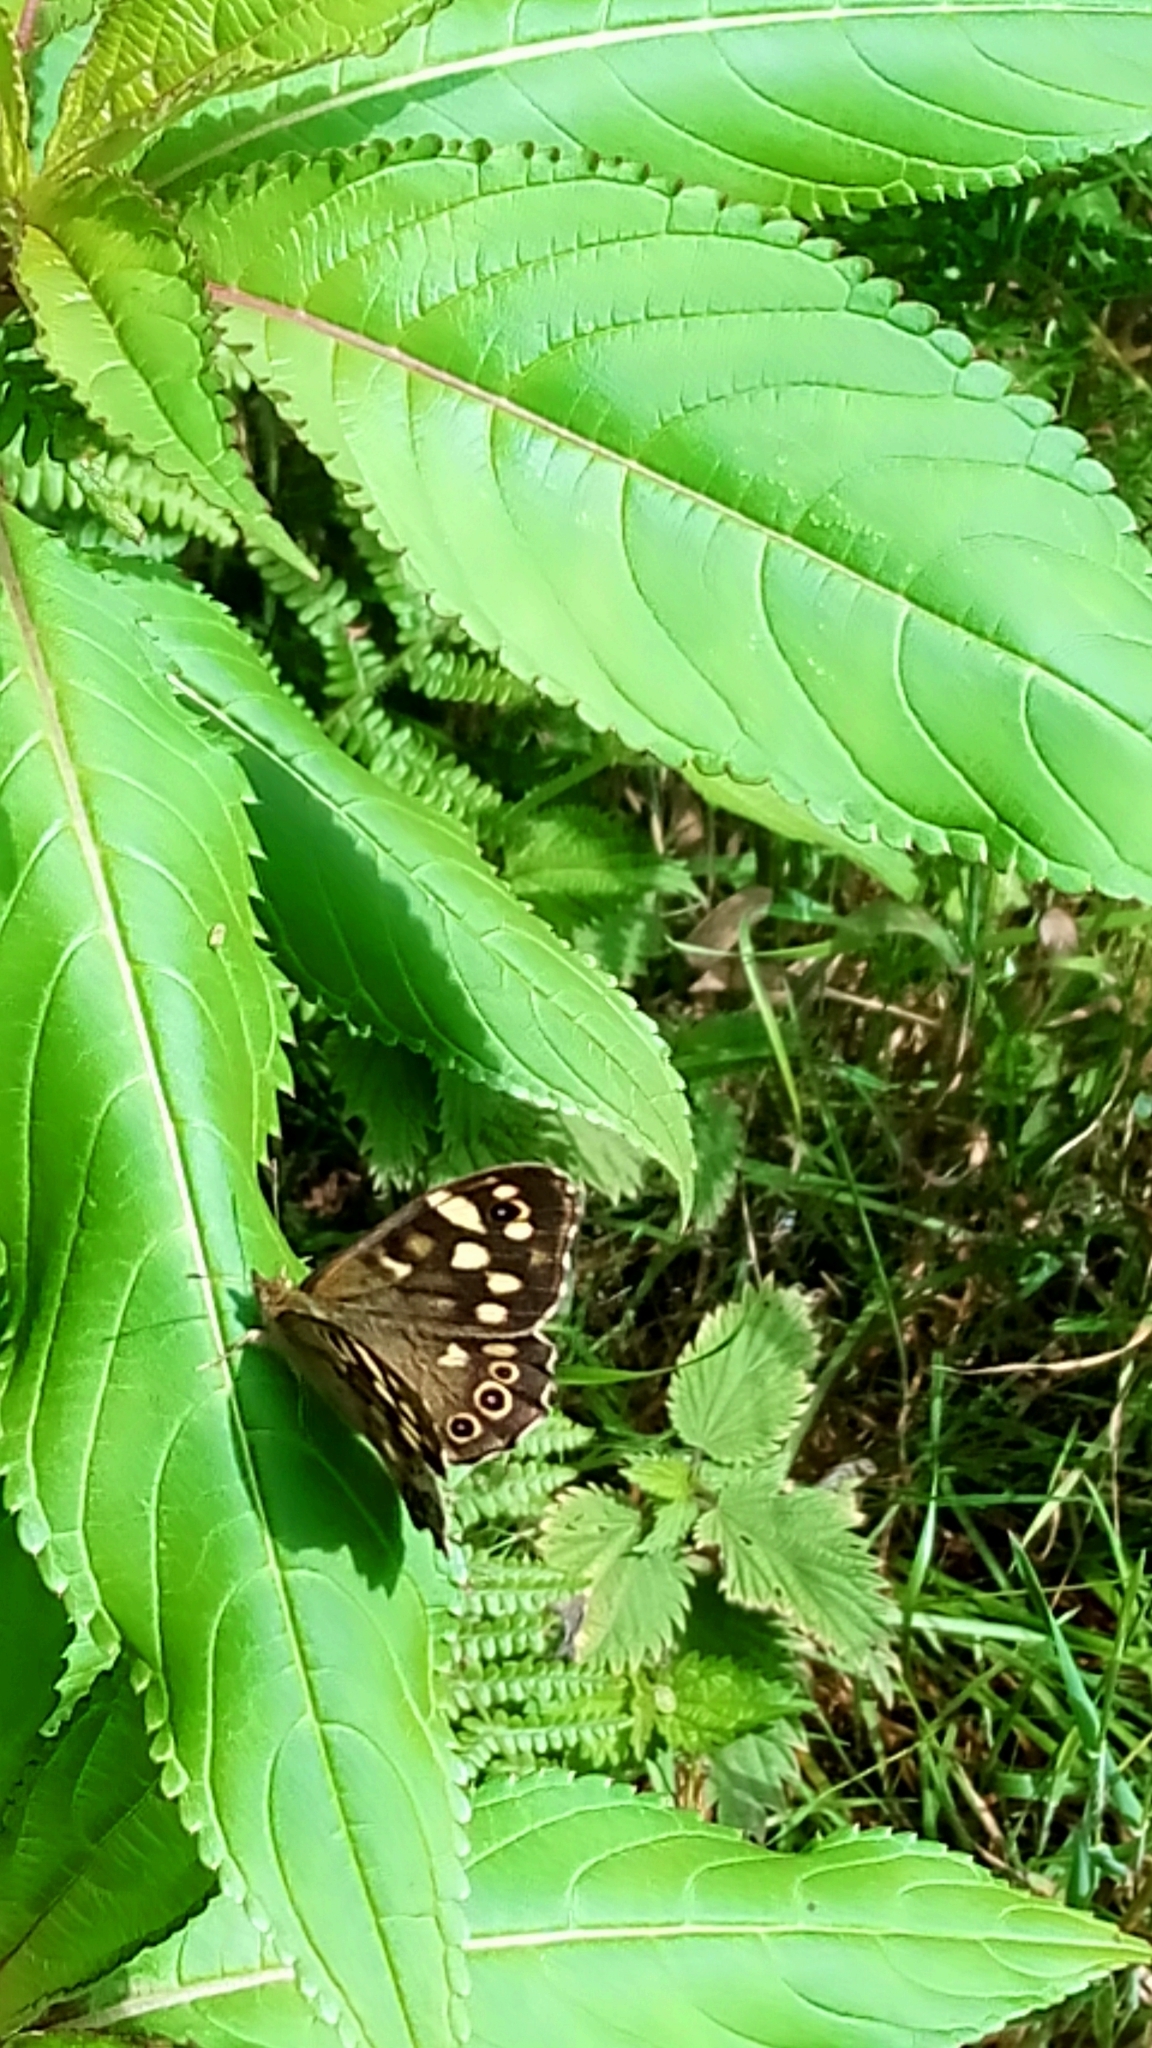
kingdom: Animalia
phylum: Arthropoda
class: Insecta
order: Lepidoptera
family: Nymphalidae
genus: Pararge
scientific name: Pararge aegeria
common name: Speckled wood
